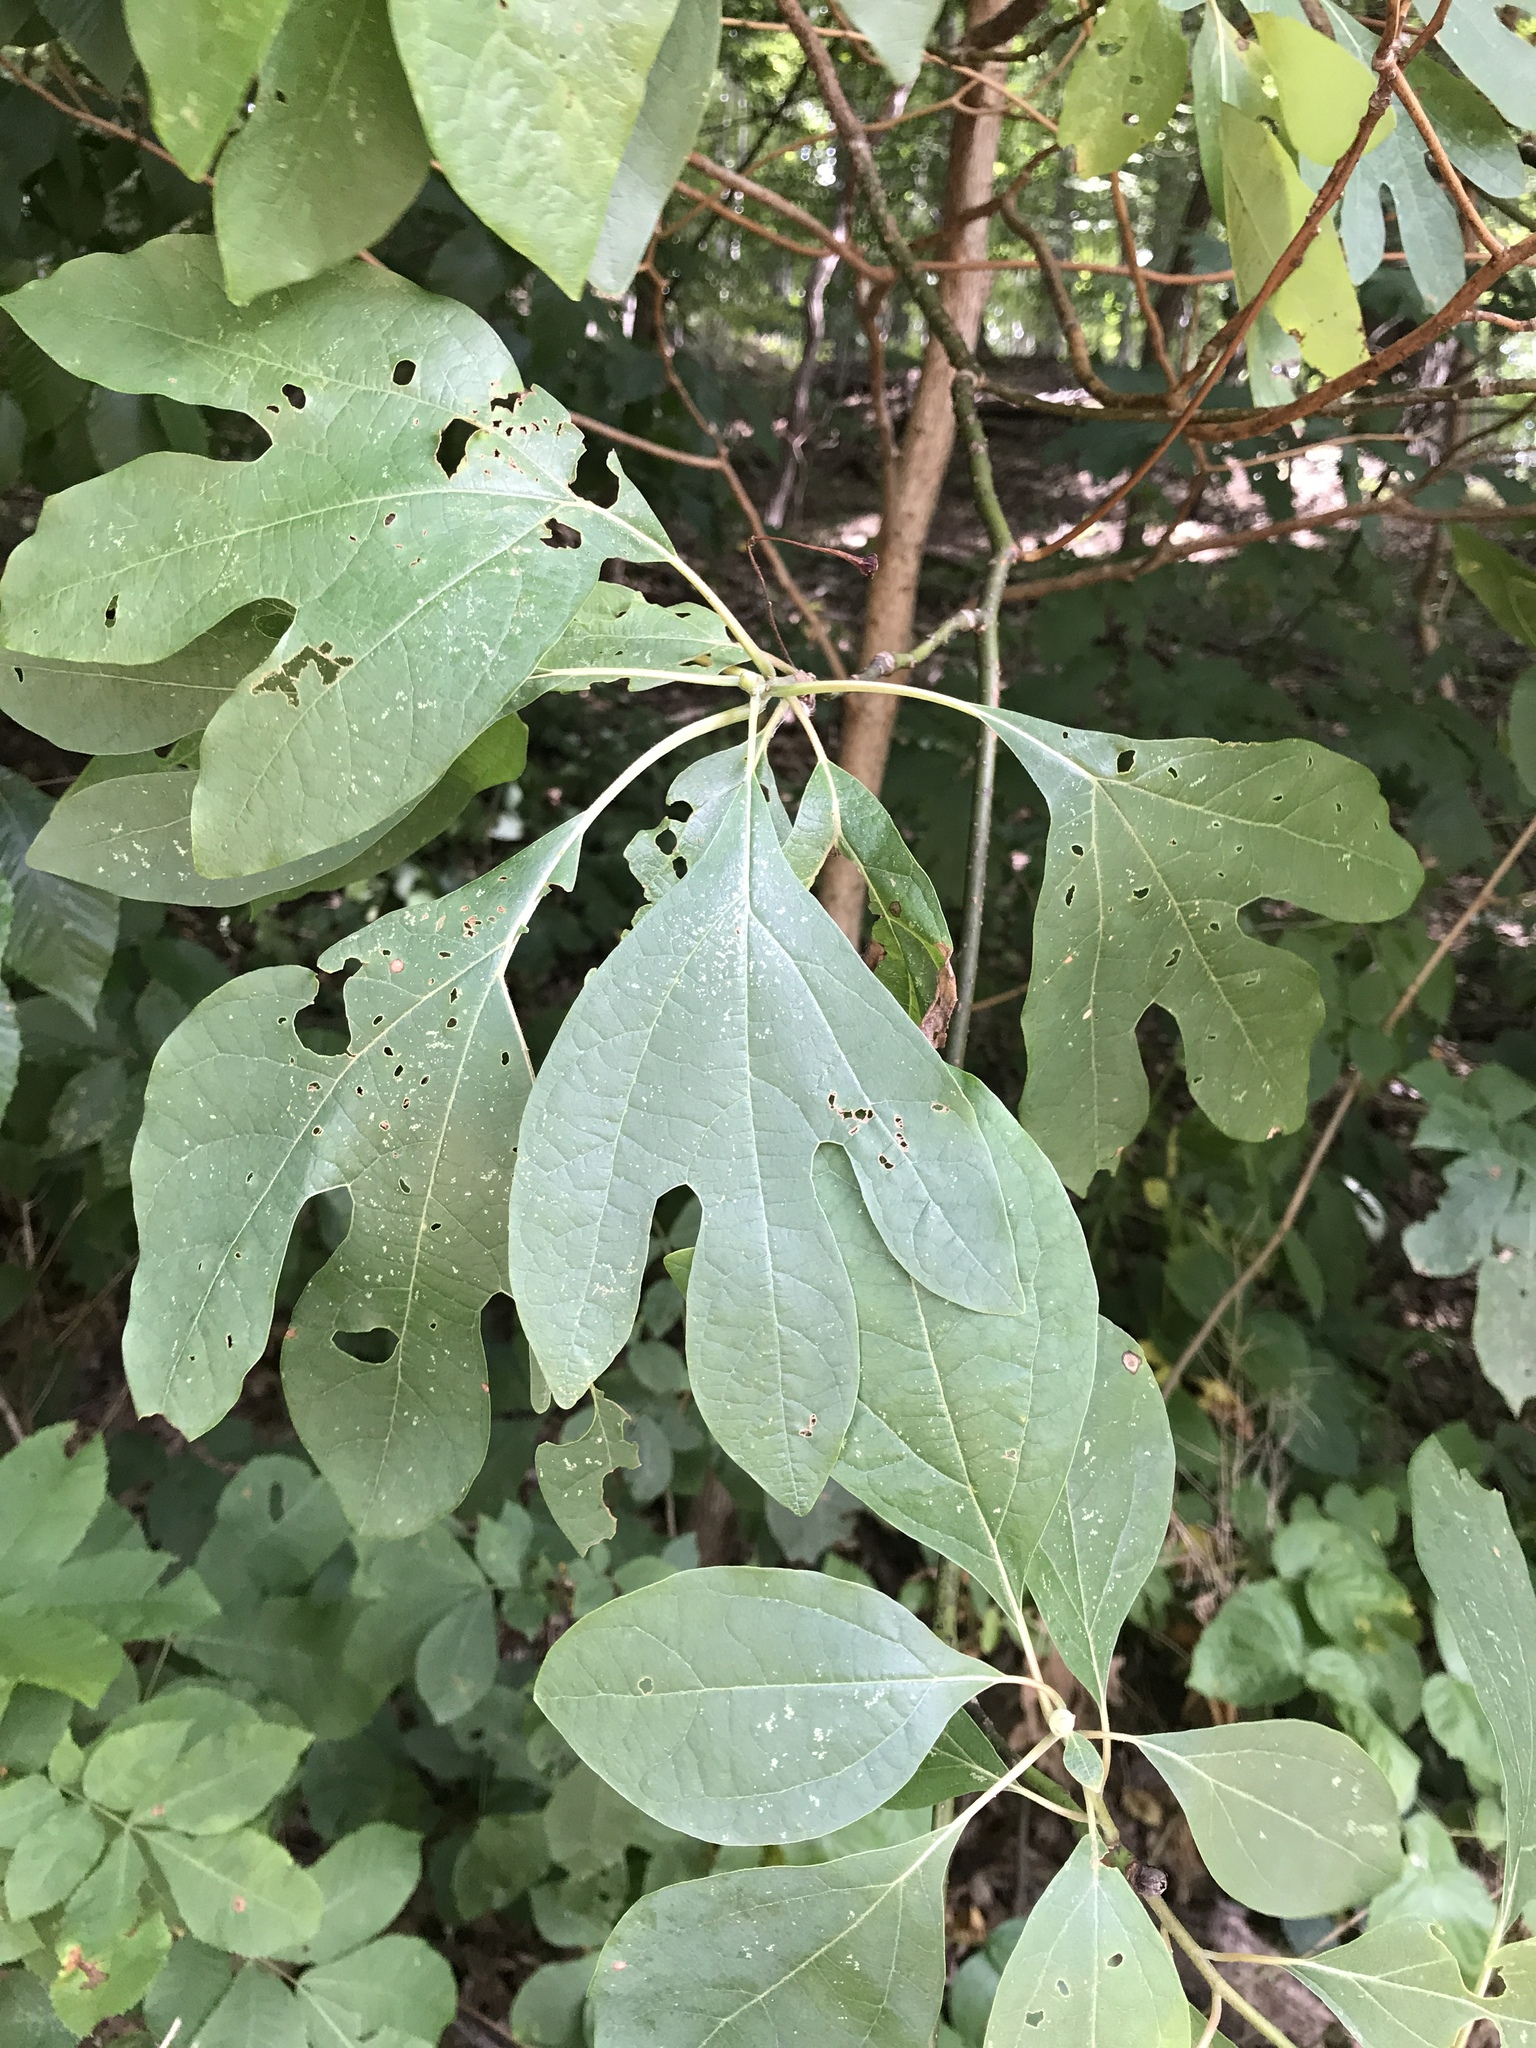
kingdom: Plantae
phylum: Tracheophyta
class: Magnoliopsida
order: Laurales
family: Lauraceae
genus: Sassafras
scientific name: Sassafras albidum
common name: Sassafras
